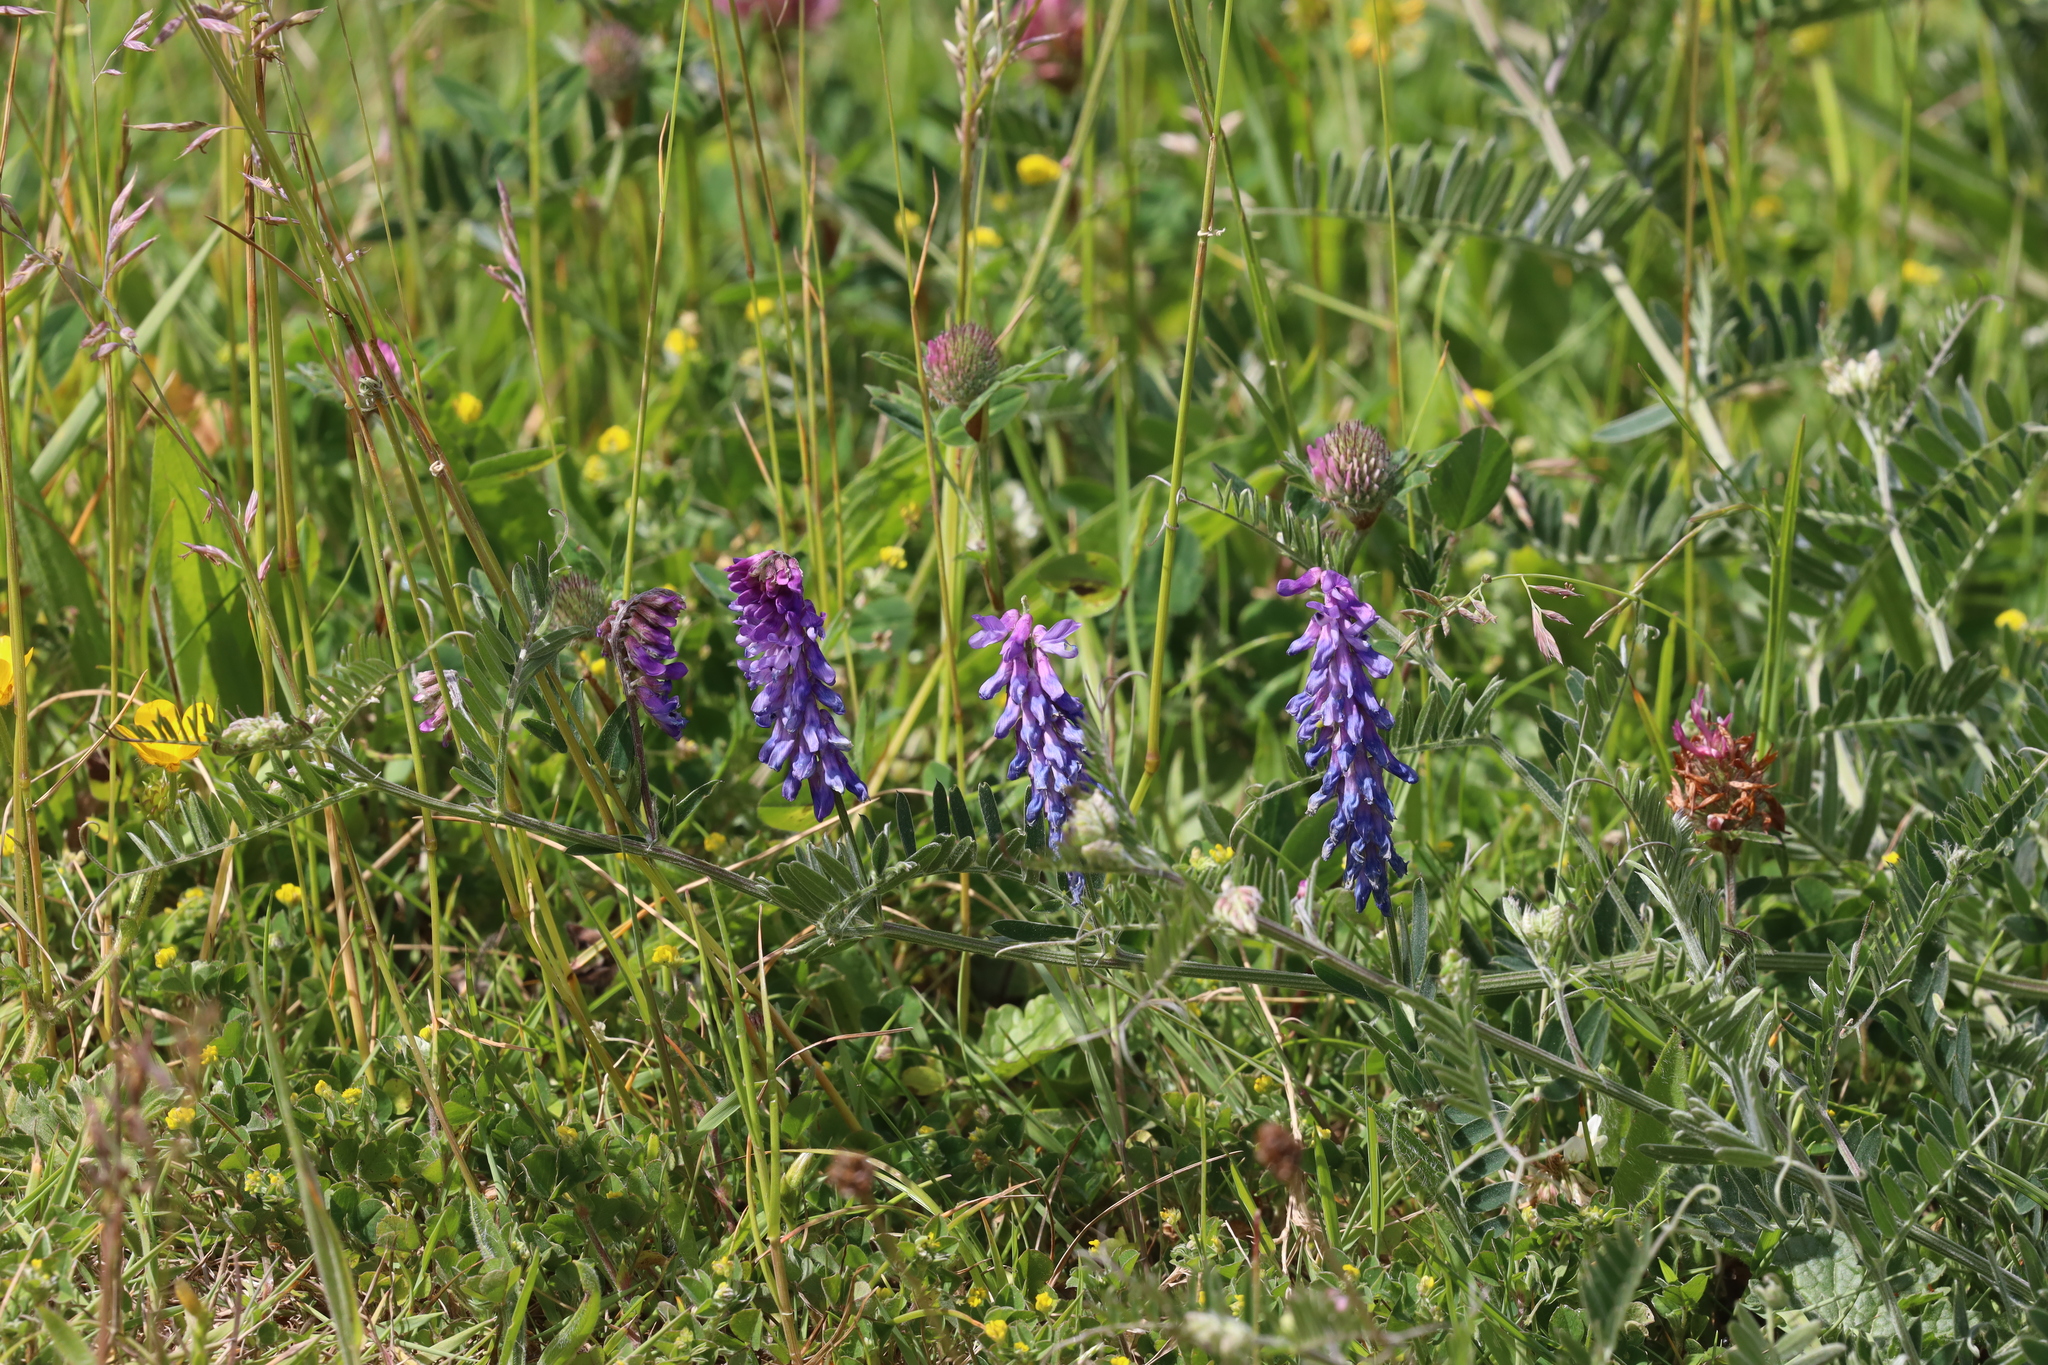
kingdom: Plantae
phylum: Tracheophyta
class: Magnoliopsida
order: Fabales
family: Fabaceae
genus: Vicia
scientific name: Vicia cracca
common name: Bird vetch
